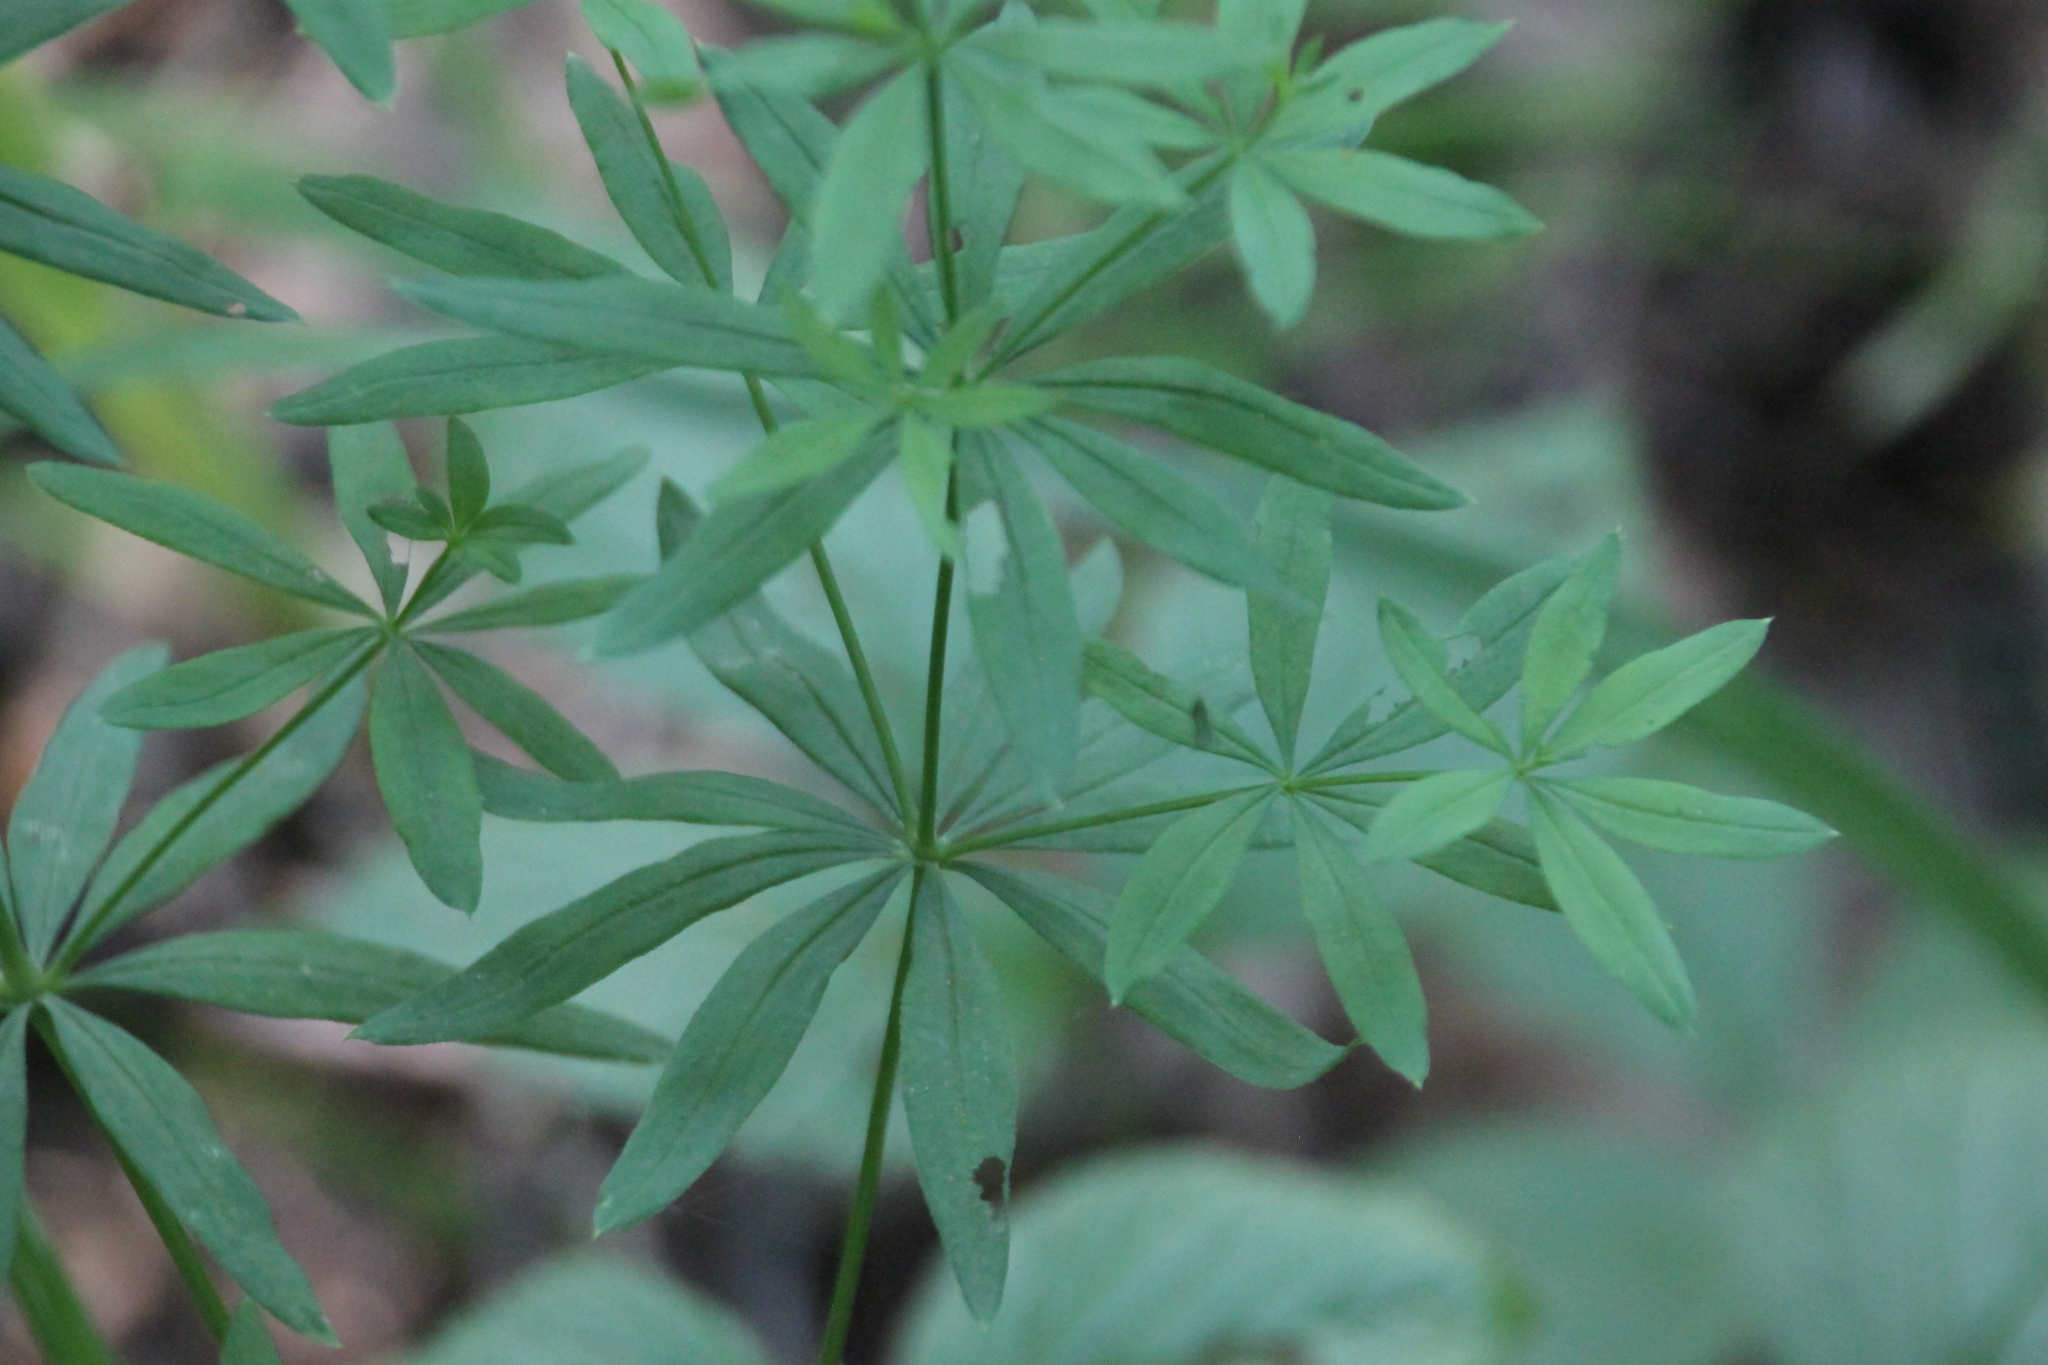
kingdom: Plantae
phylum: Tracheophyta
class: Magnoliopsida
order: Gentianales
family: Rubiaceae
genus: Galium
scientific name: Galium intermedium
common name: Bedstraw
